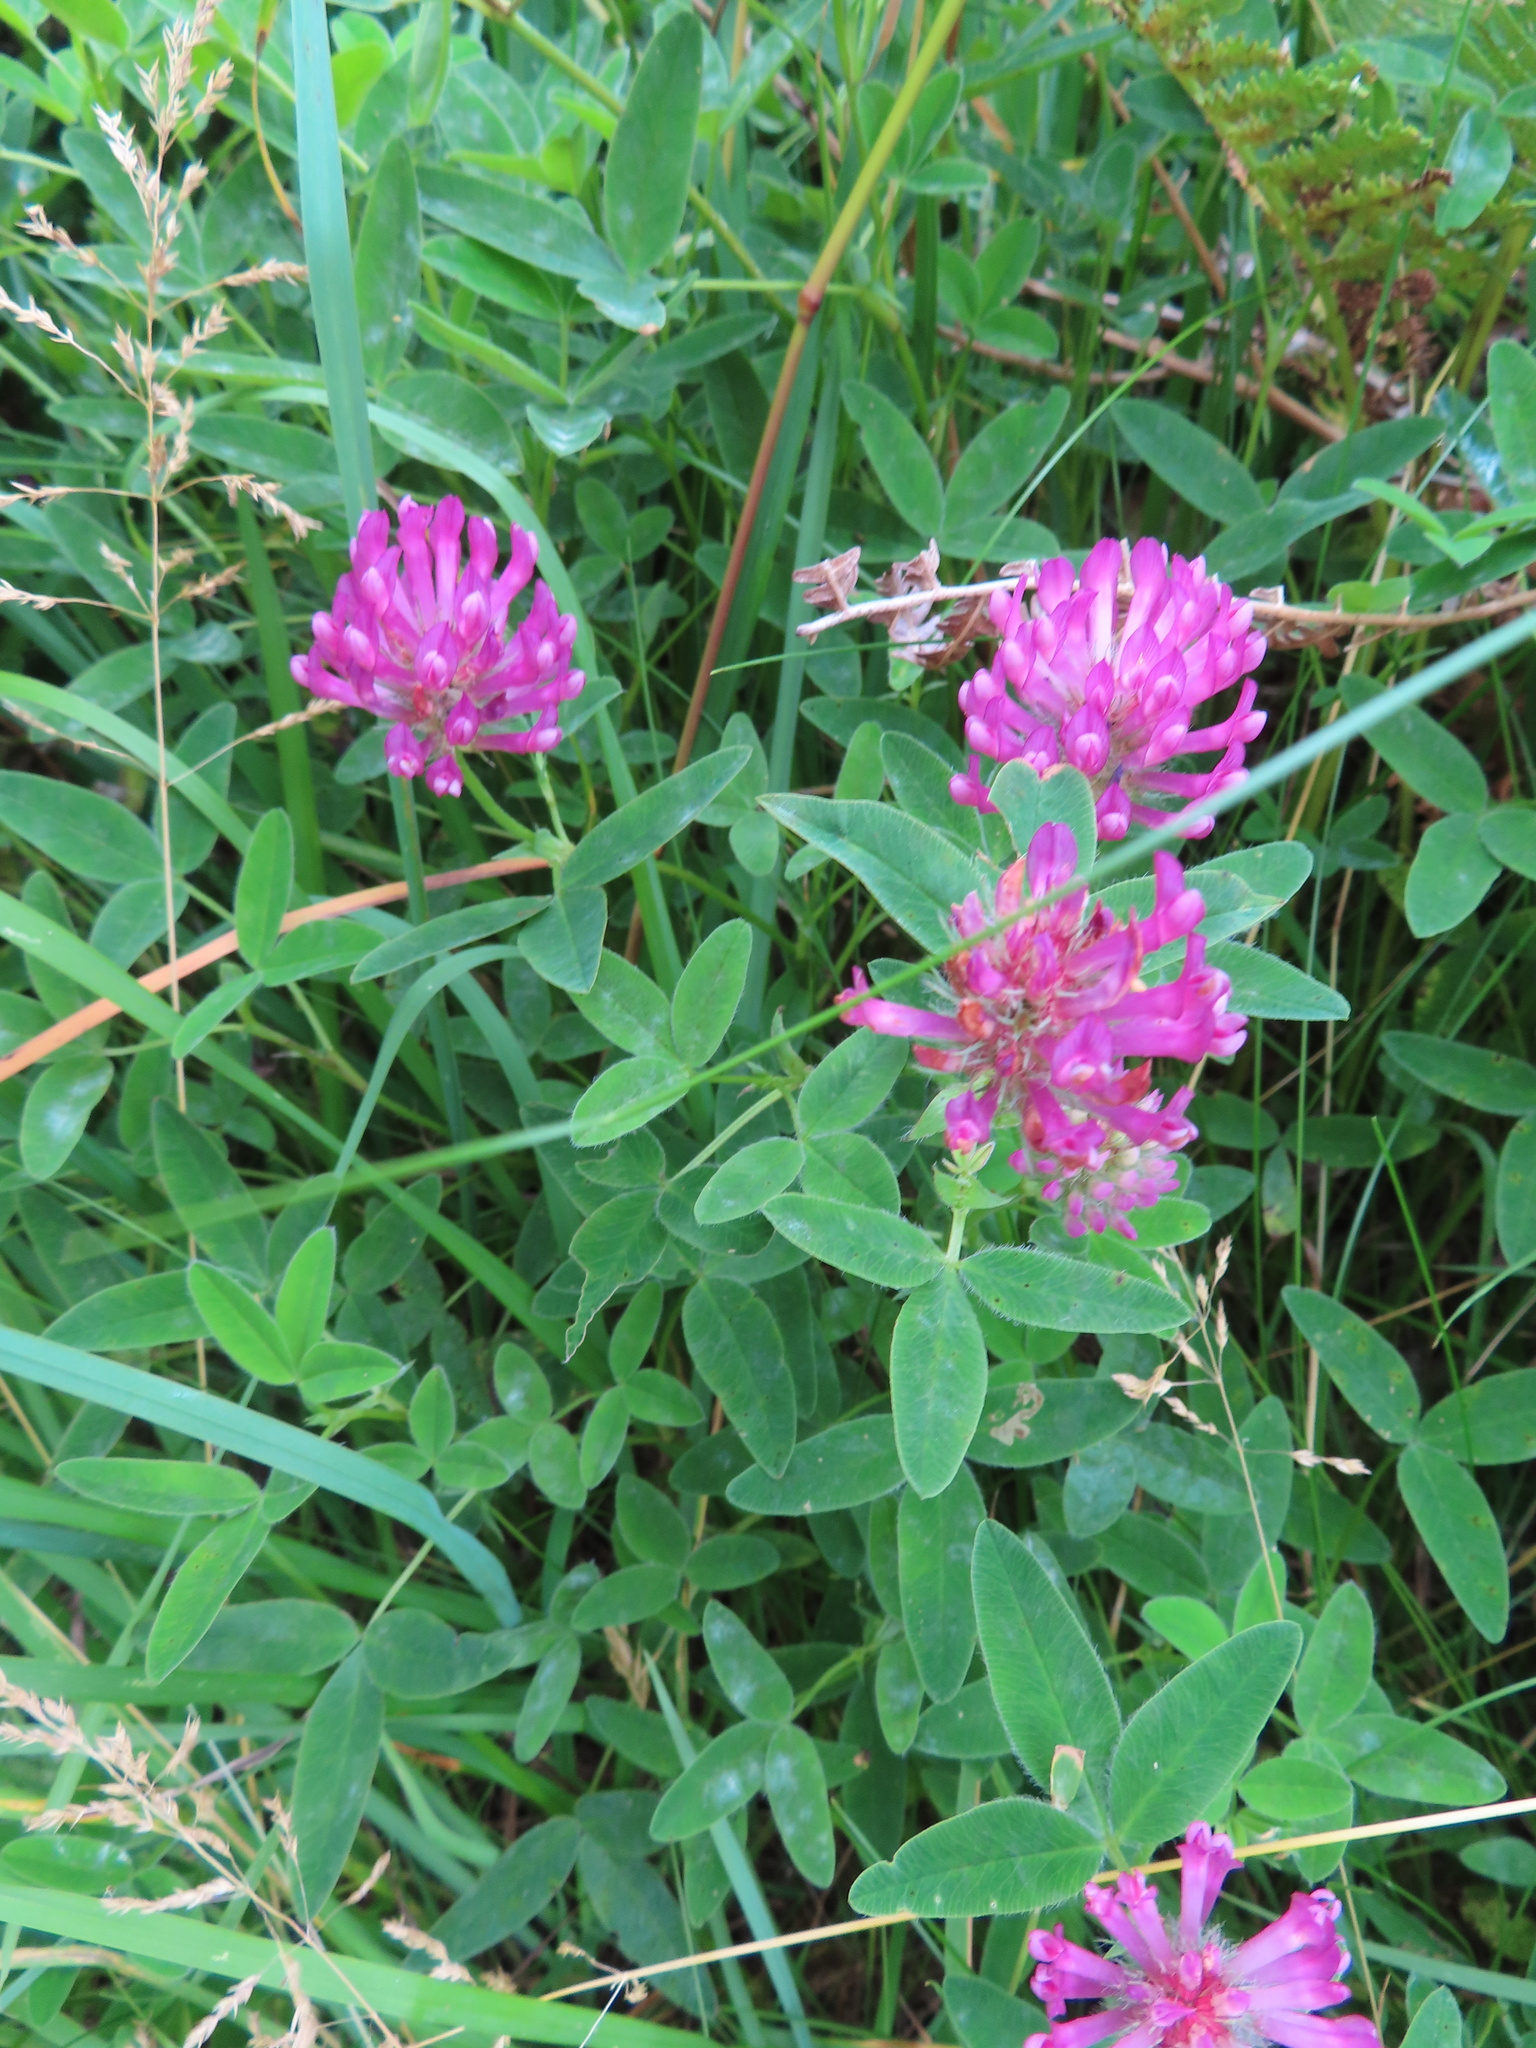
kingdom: Plantae
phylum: Tracheophyta
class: Magnoliopsida
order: Fabales
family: Fabaceae
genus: Trifolium
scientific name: Trifolium medium
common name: Zigzag clover
